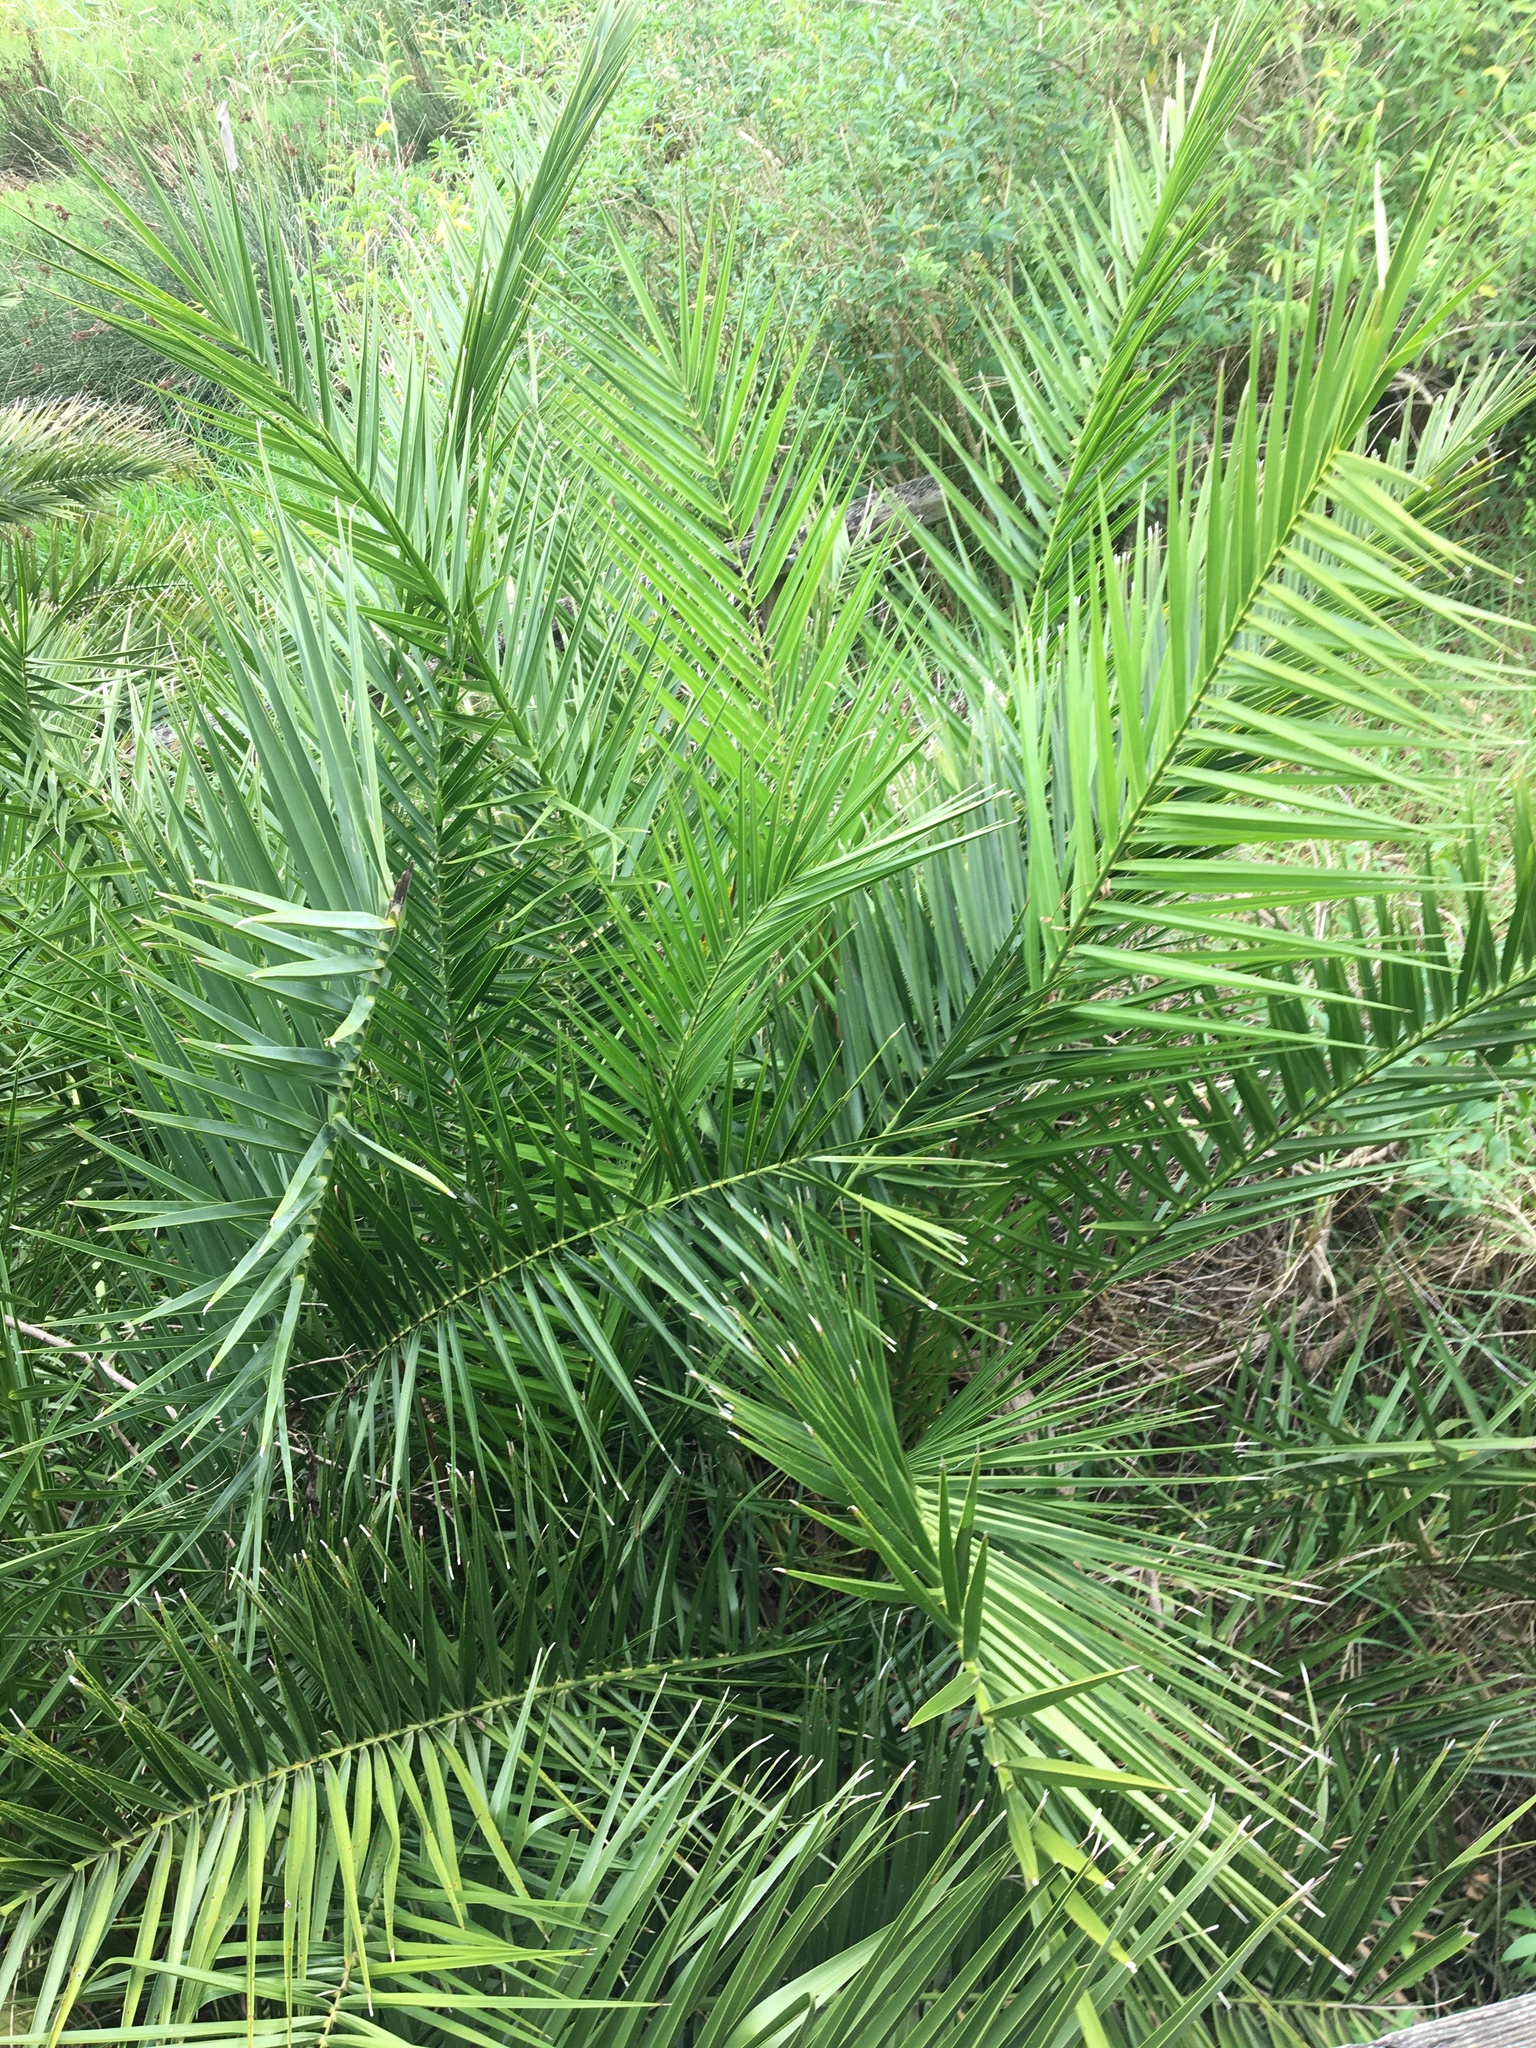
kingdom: Plantae
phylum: Tracheophyta
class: Liliopsida
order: Arecales
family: Arecaceae
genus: Phoenix
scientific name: Phoenix canariensis
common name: Canary island date palm
